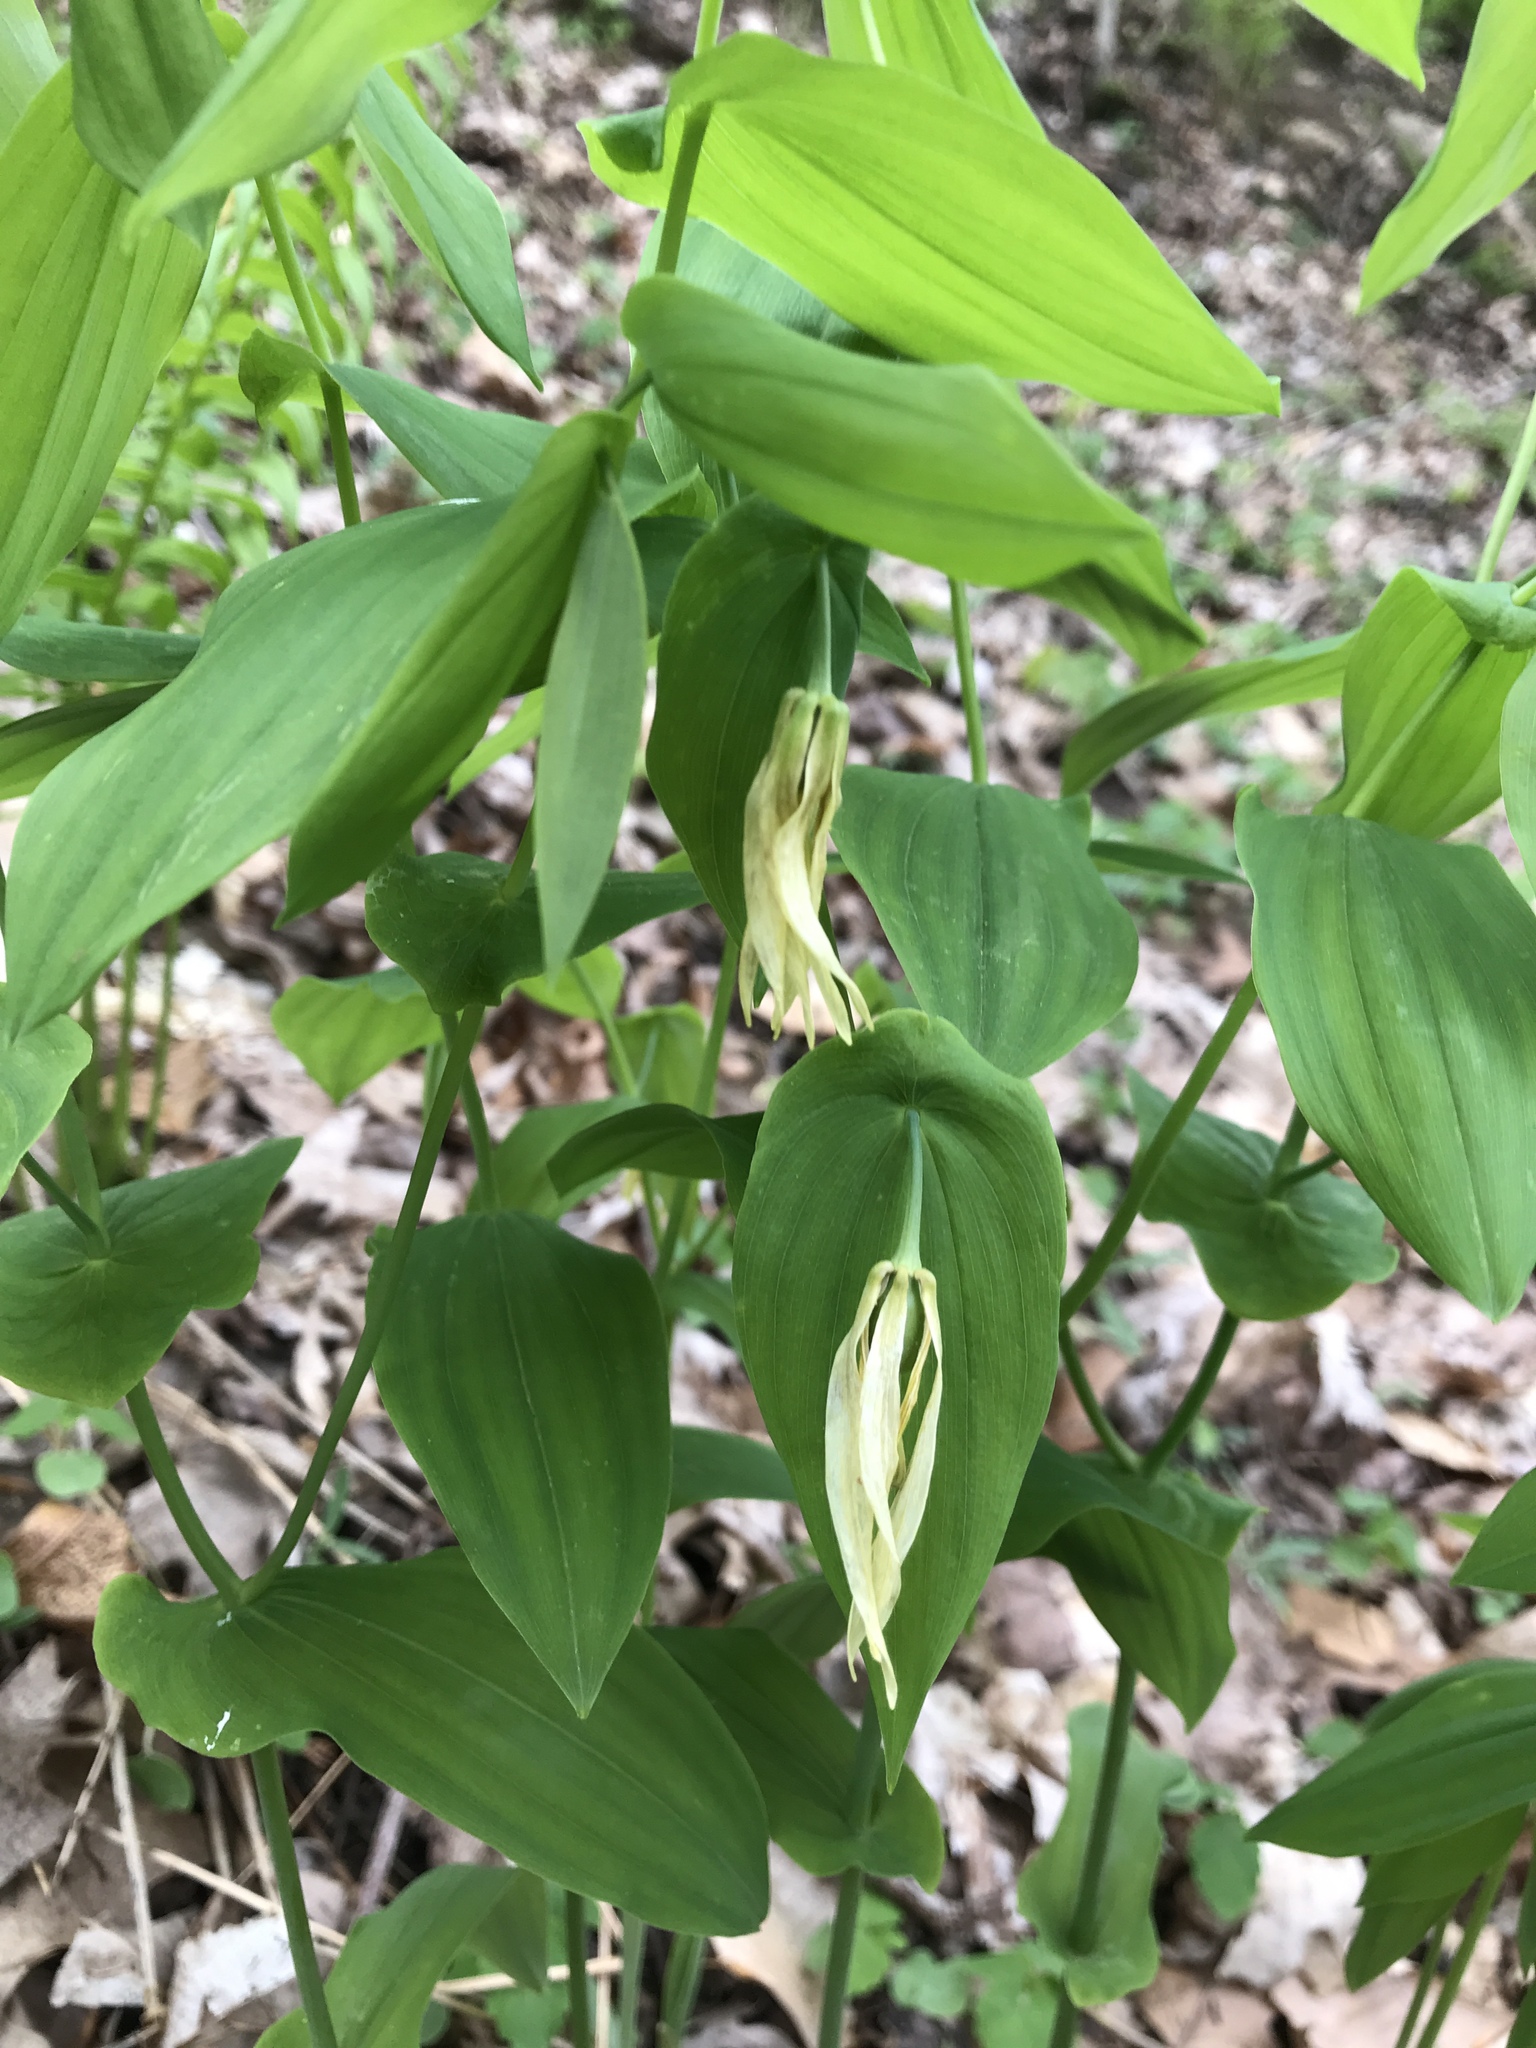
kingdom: Plantae
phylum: Tracheophyta
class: Liliopsida
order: Liliales
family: Colchicaceae
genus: Uvularia
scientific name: Uvularia grandiflora
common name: Bellwort
